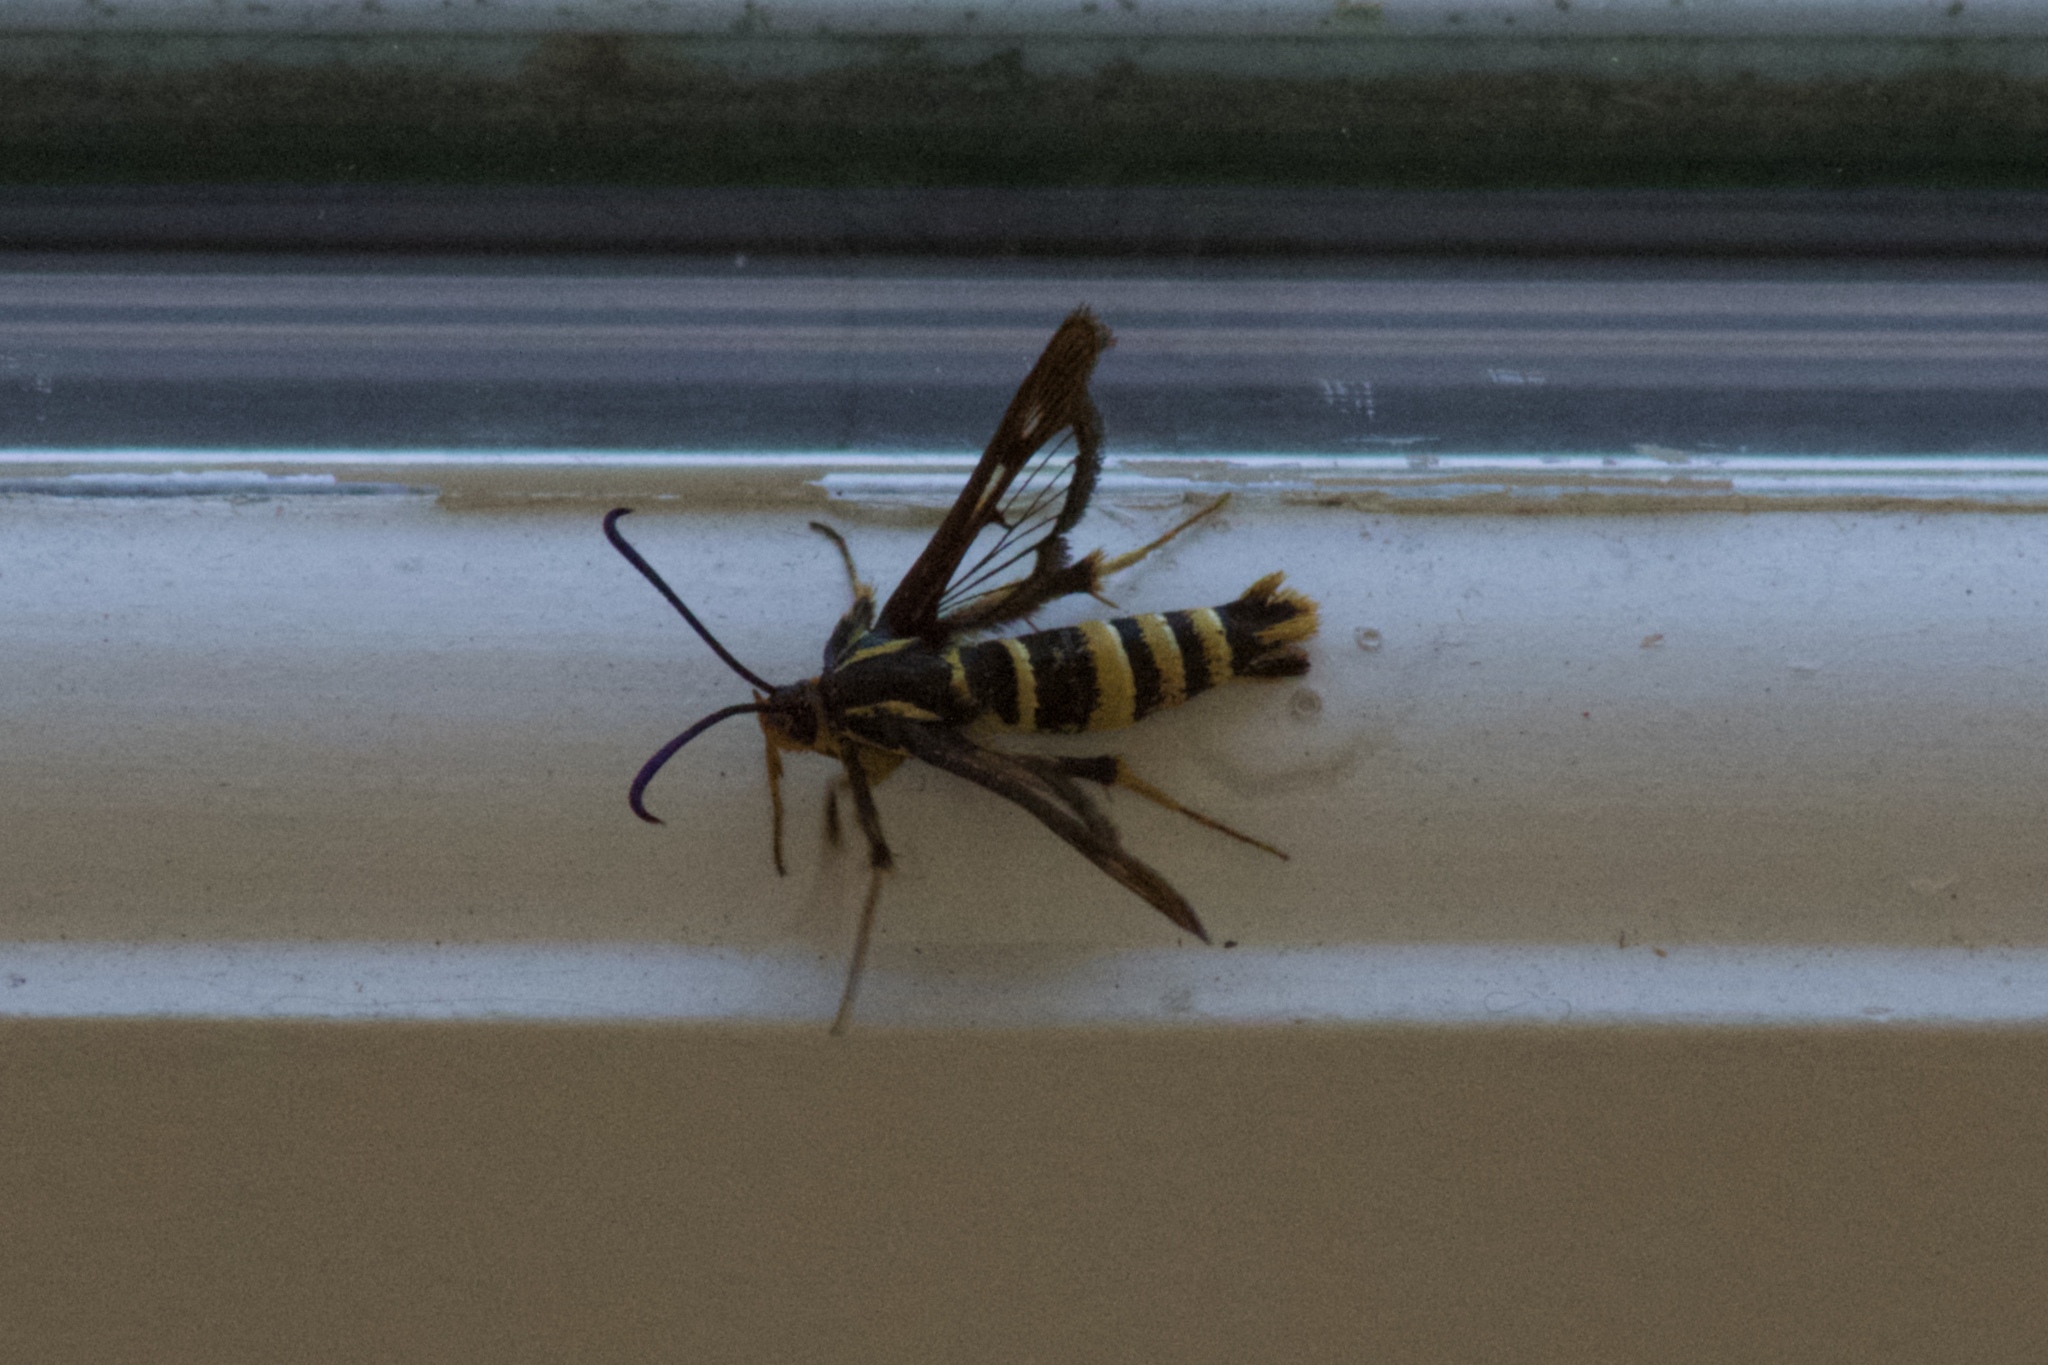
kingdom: Animalia
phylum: Arthropoda
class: Insecta
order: Lepidoptera
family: Sesiidae
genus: Synanthedon
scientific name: Synanthedon bibionipennis
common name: Strawberry crown moth
